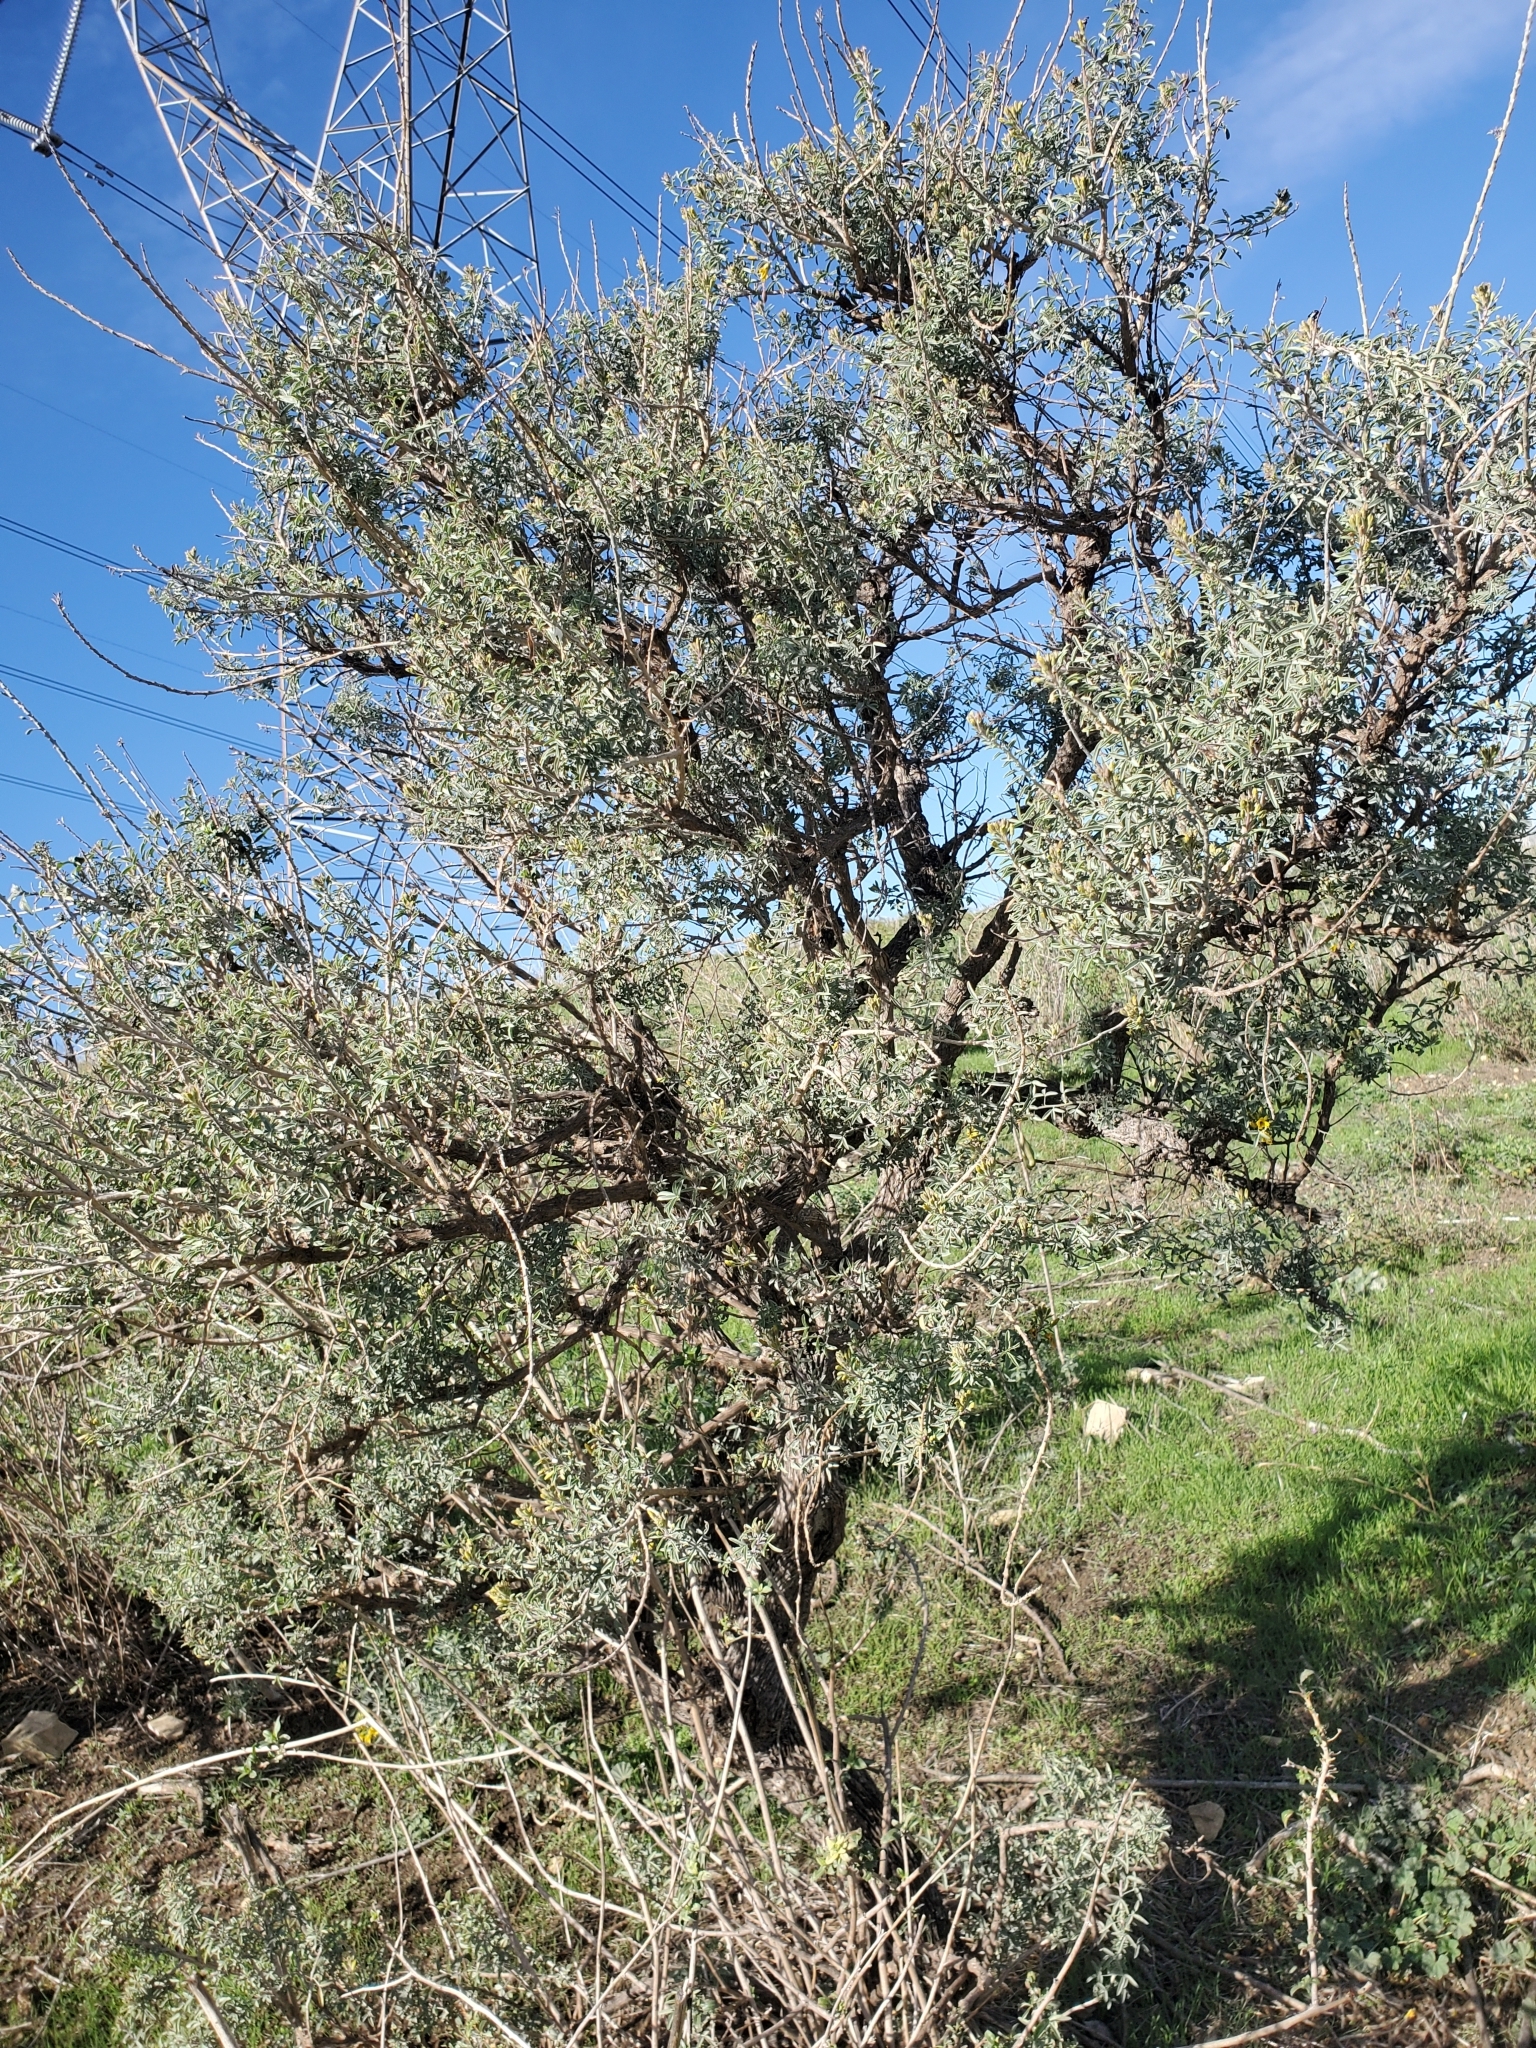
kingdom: Plantae
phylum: Tracheophyta
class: Magnoliopsida
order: Brassicales
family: Cleomaceae
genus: Cleomella
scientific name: Cleomella arborea
